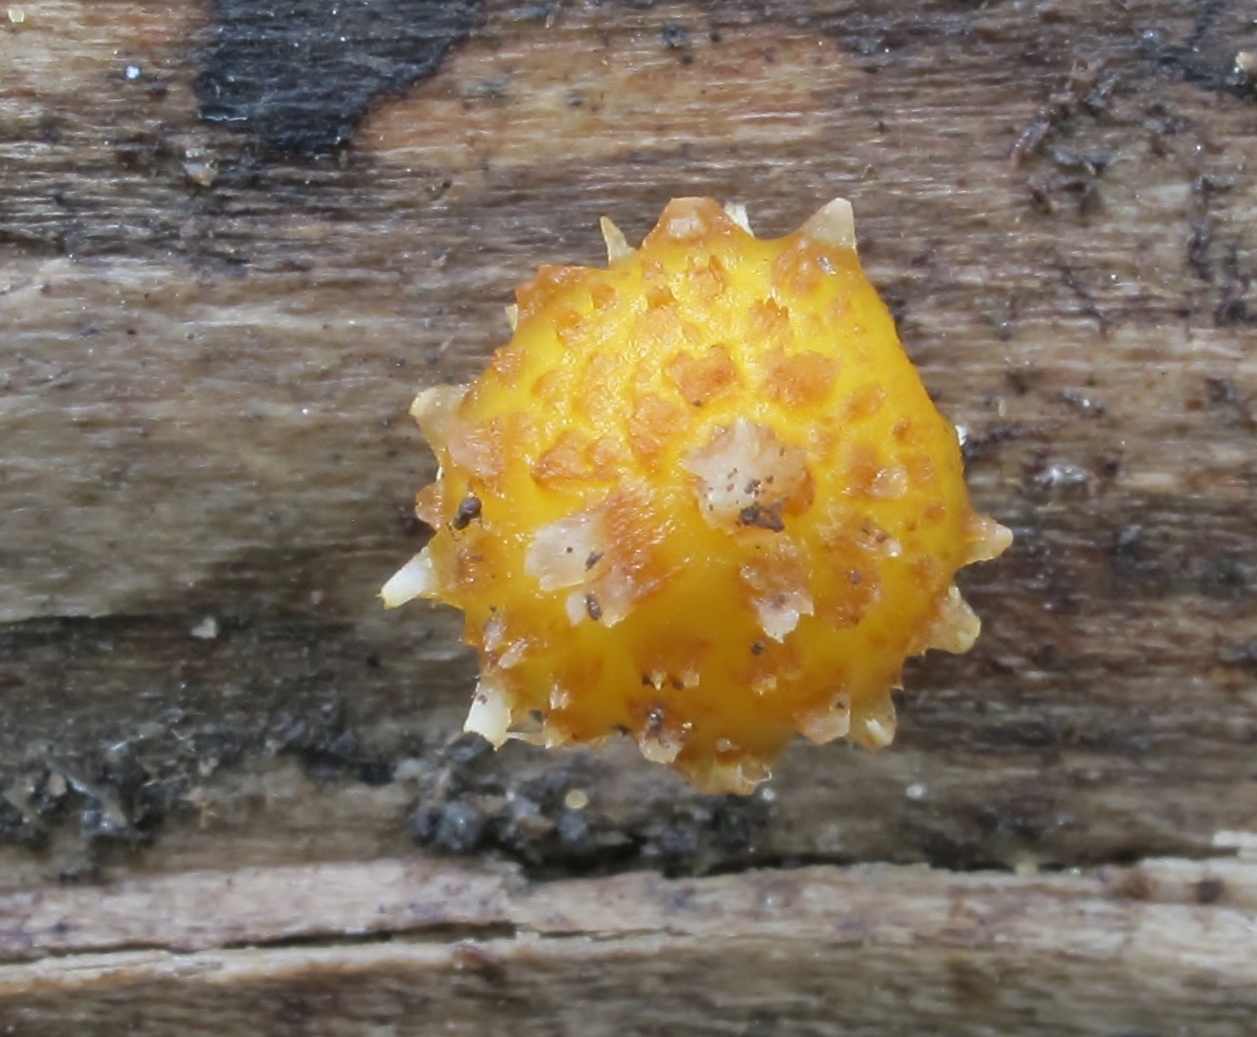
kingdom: Fungi
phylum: Basidiomycota
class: Agaricomycetes
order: Agaricales
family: Strophariaceae
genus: Pholiota
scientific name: Pholiota aurivella
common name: Golden scalycap
